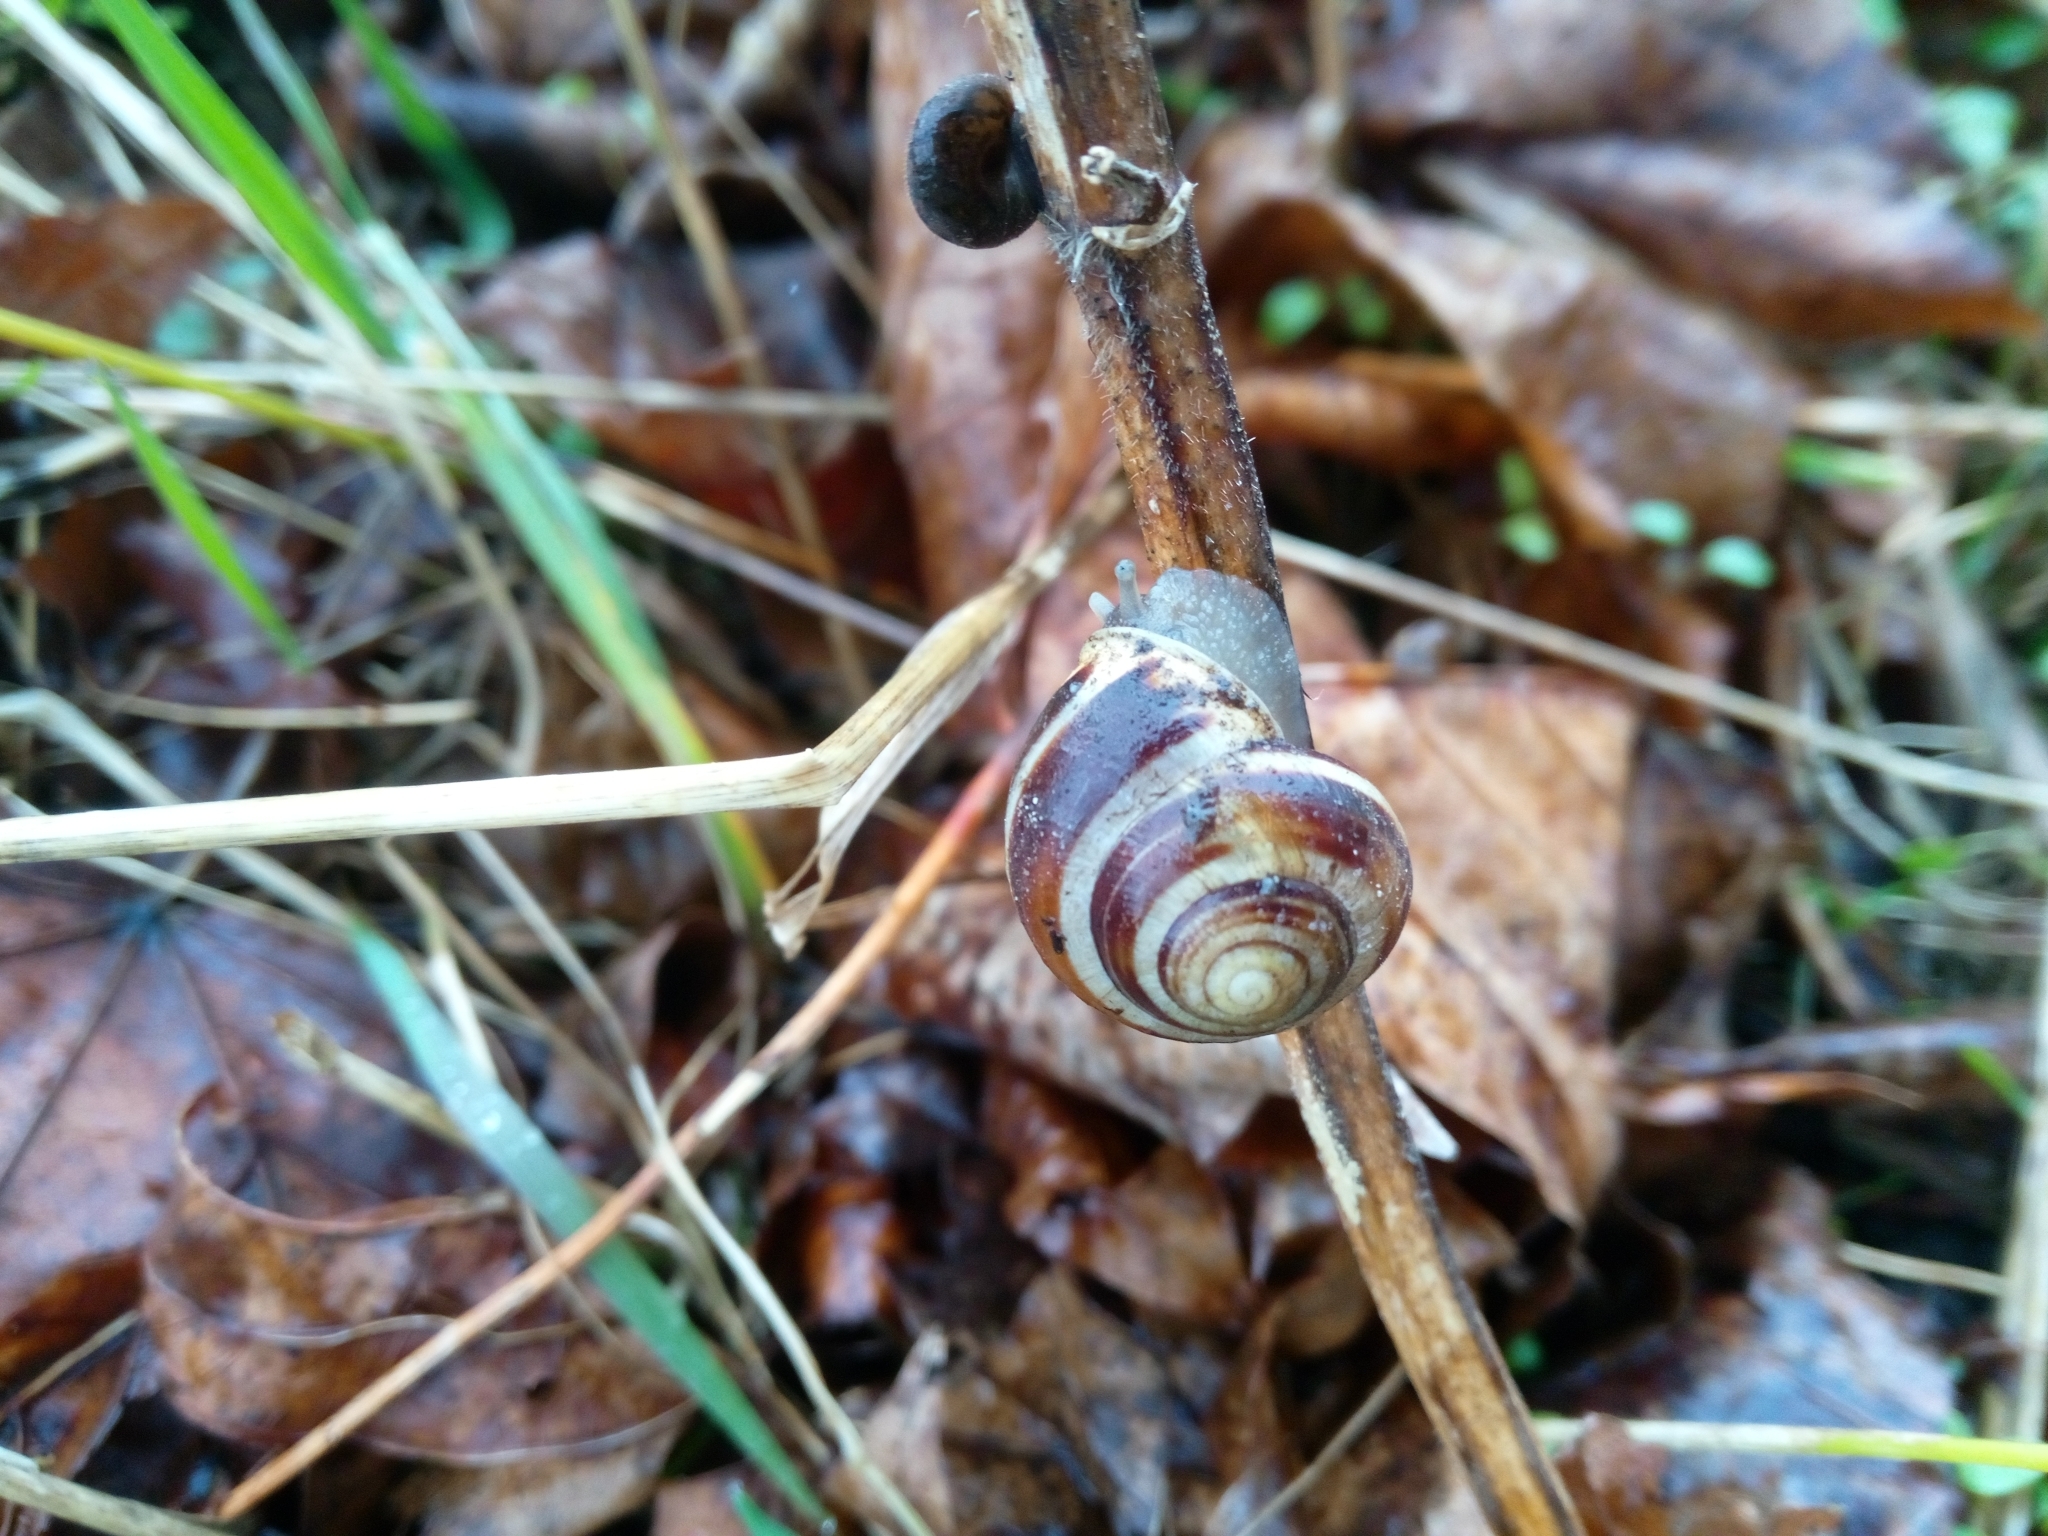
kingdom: Animalia
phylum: Mollusca
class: Gastropoda
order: Stylommatophora
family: Helicidae
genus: Cepaea
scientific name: Cepaea hortensis
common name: White-lip gardensnail
